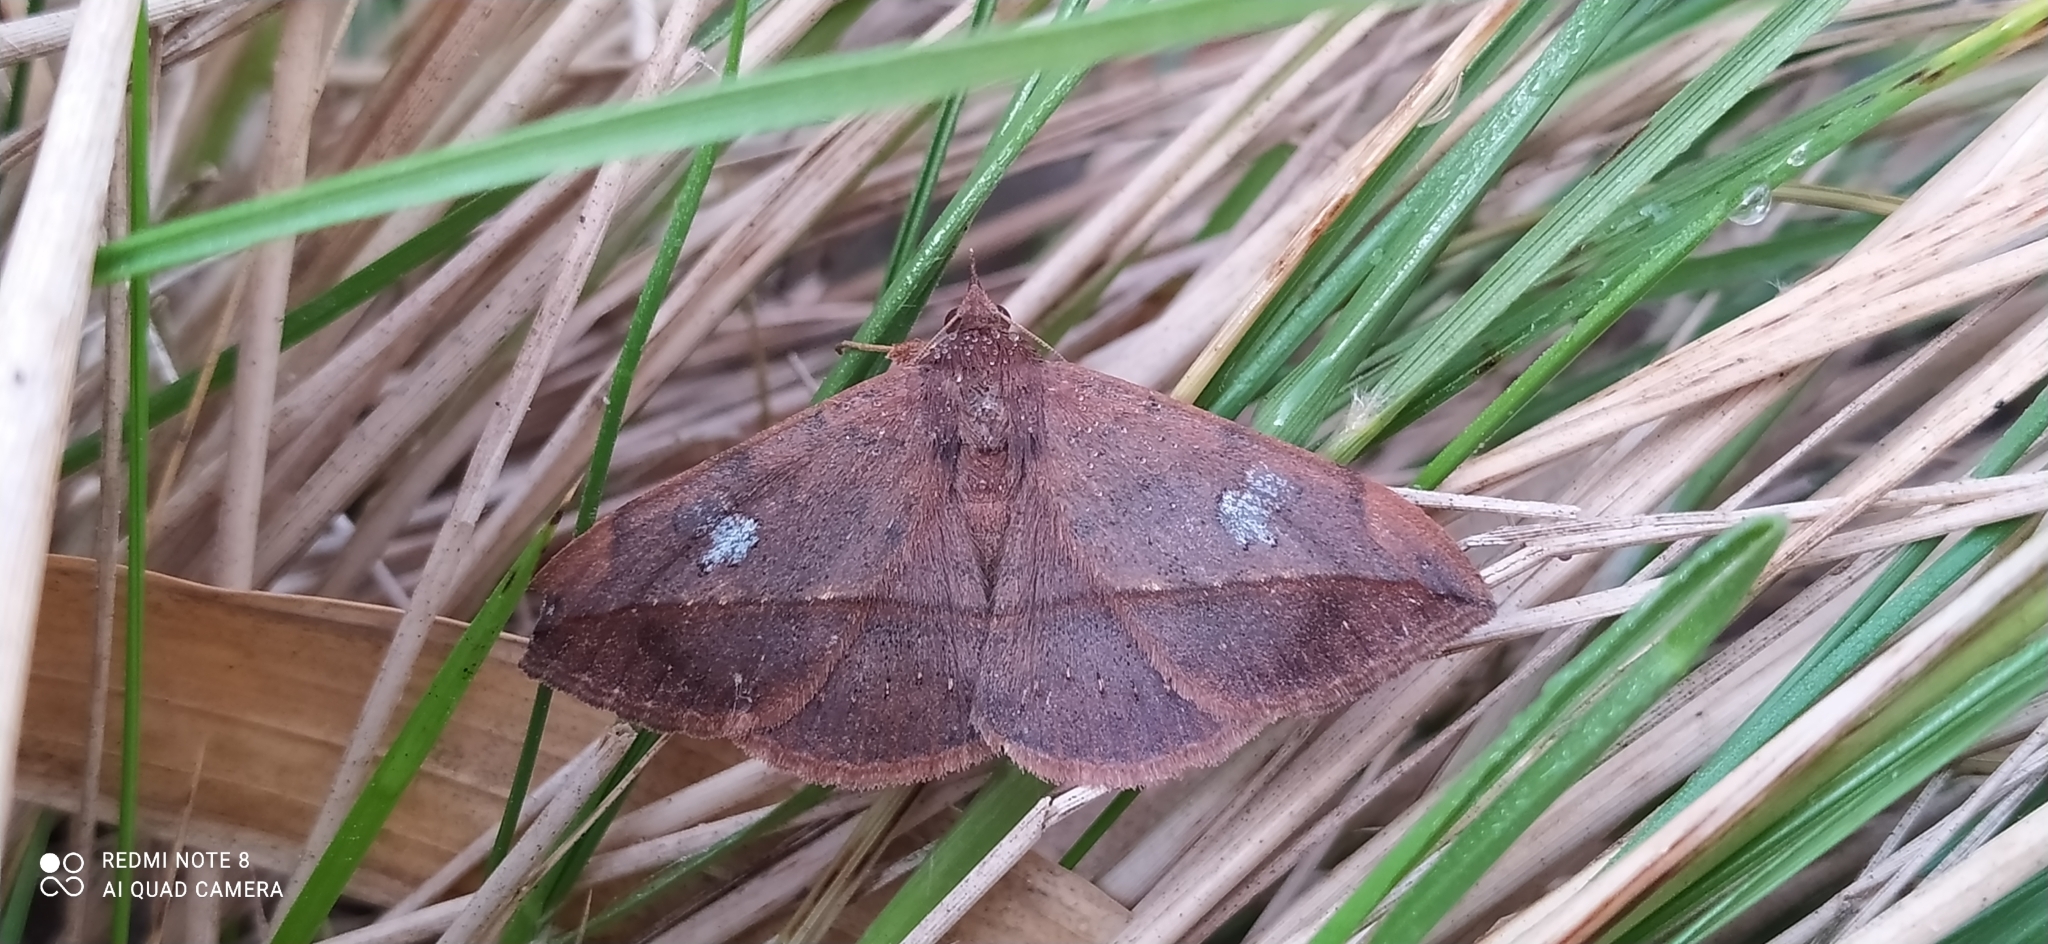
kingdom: Animalia
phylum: Arthropoda
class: Insecta
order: Lepidoptera
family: Erebidae
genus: Anticarsia
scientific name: Anticarsia gemmatalis
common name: Cutworm moth
